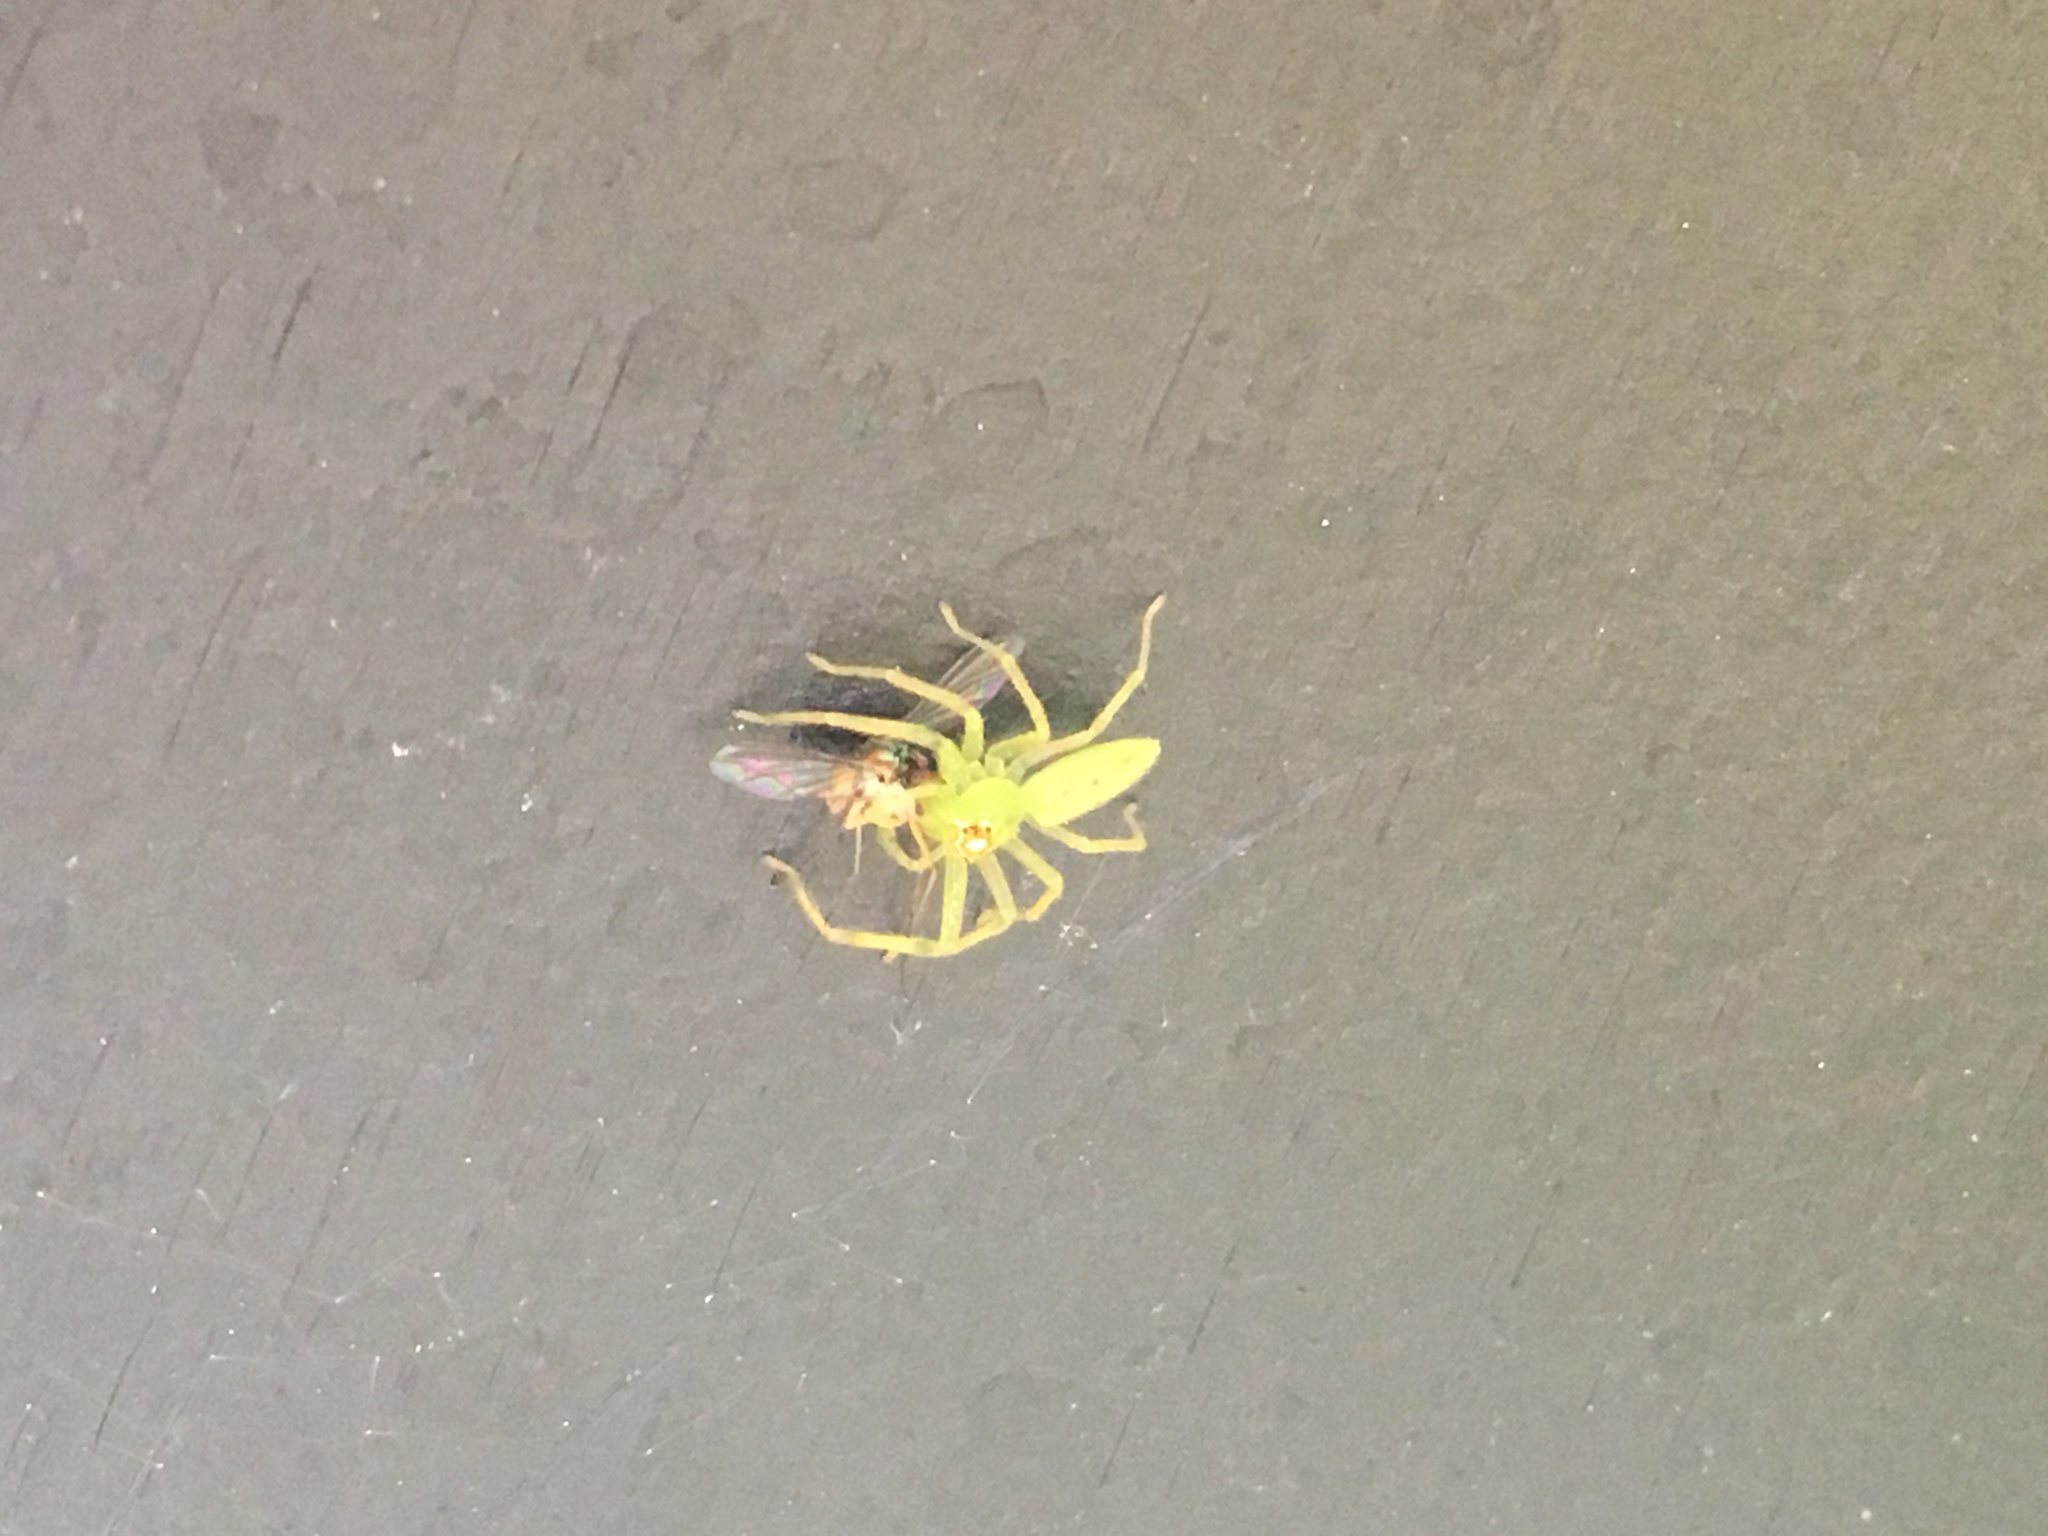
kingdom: Animalia
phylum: Arthropoda
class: Arachnida
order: Araneae
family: Salticidae
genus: Lyssomanes
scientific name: Lyssomanes viridis
